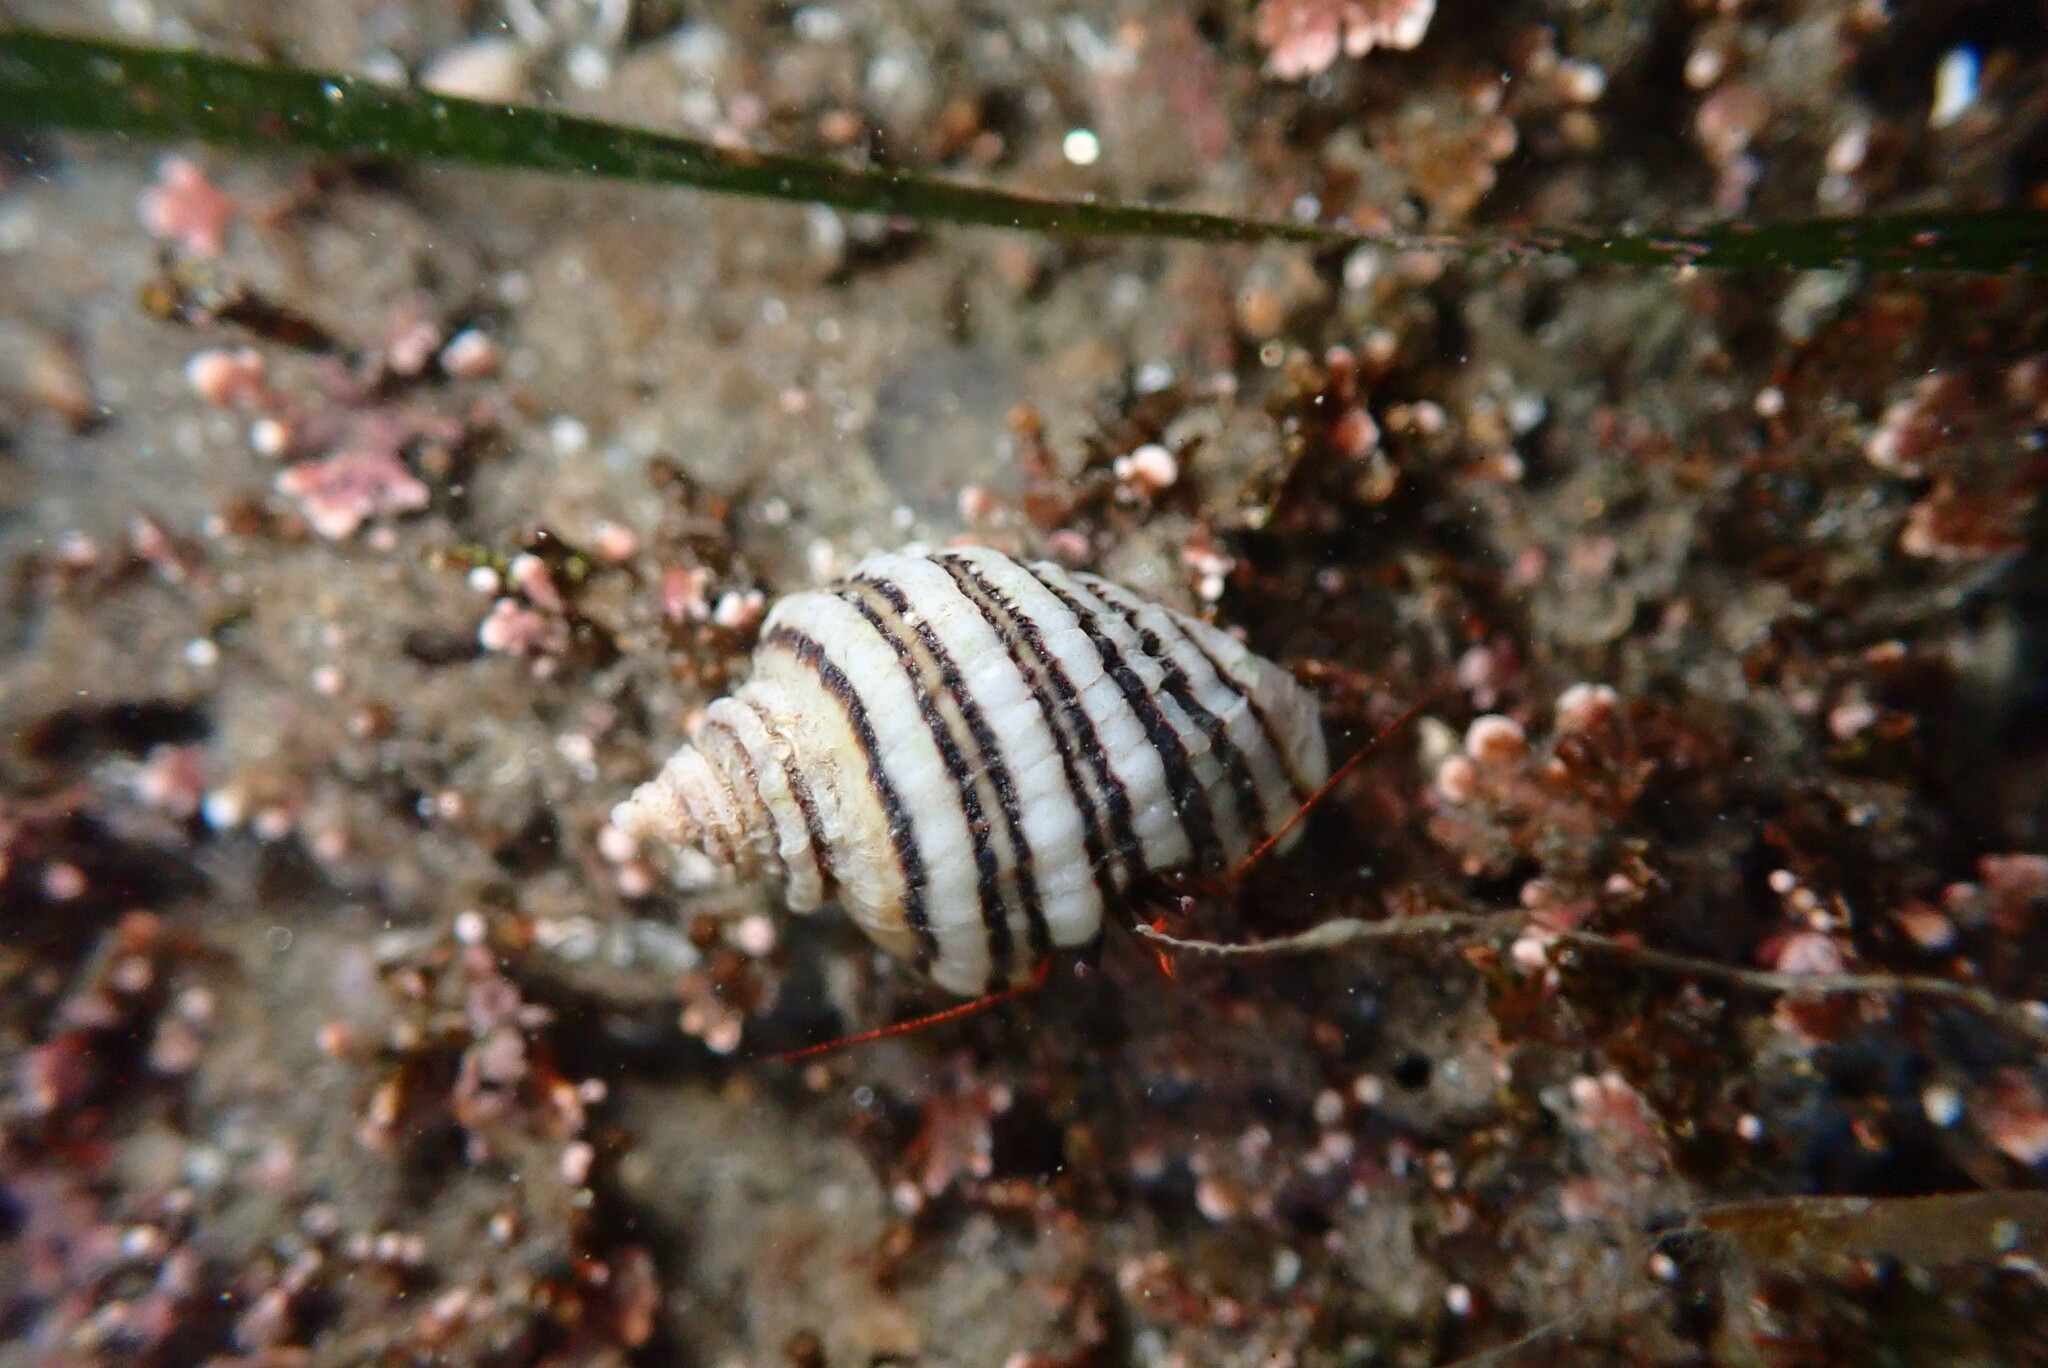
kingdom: Animalia
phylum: Mollusca
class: Gastropoda
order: Neogastropoda
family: Muricidae
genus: Nucella
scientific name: Nucella ostrina
